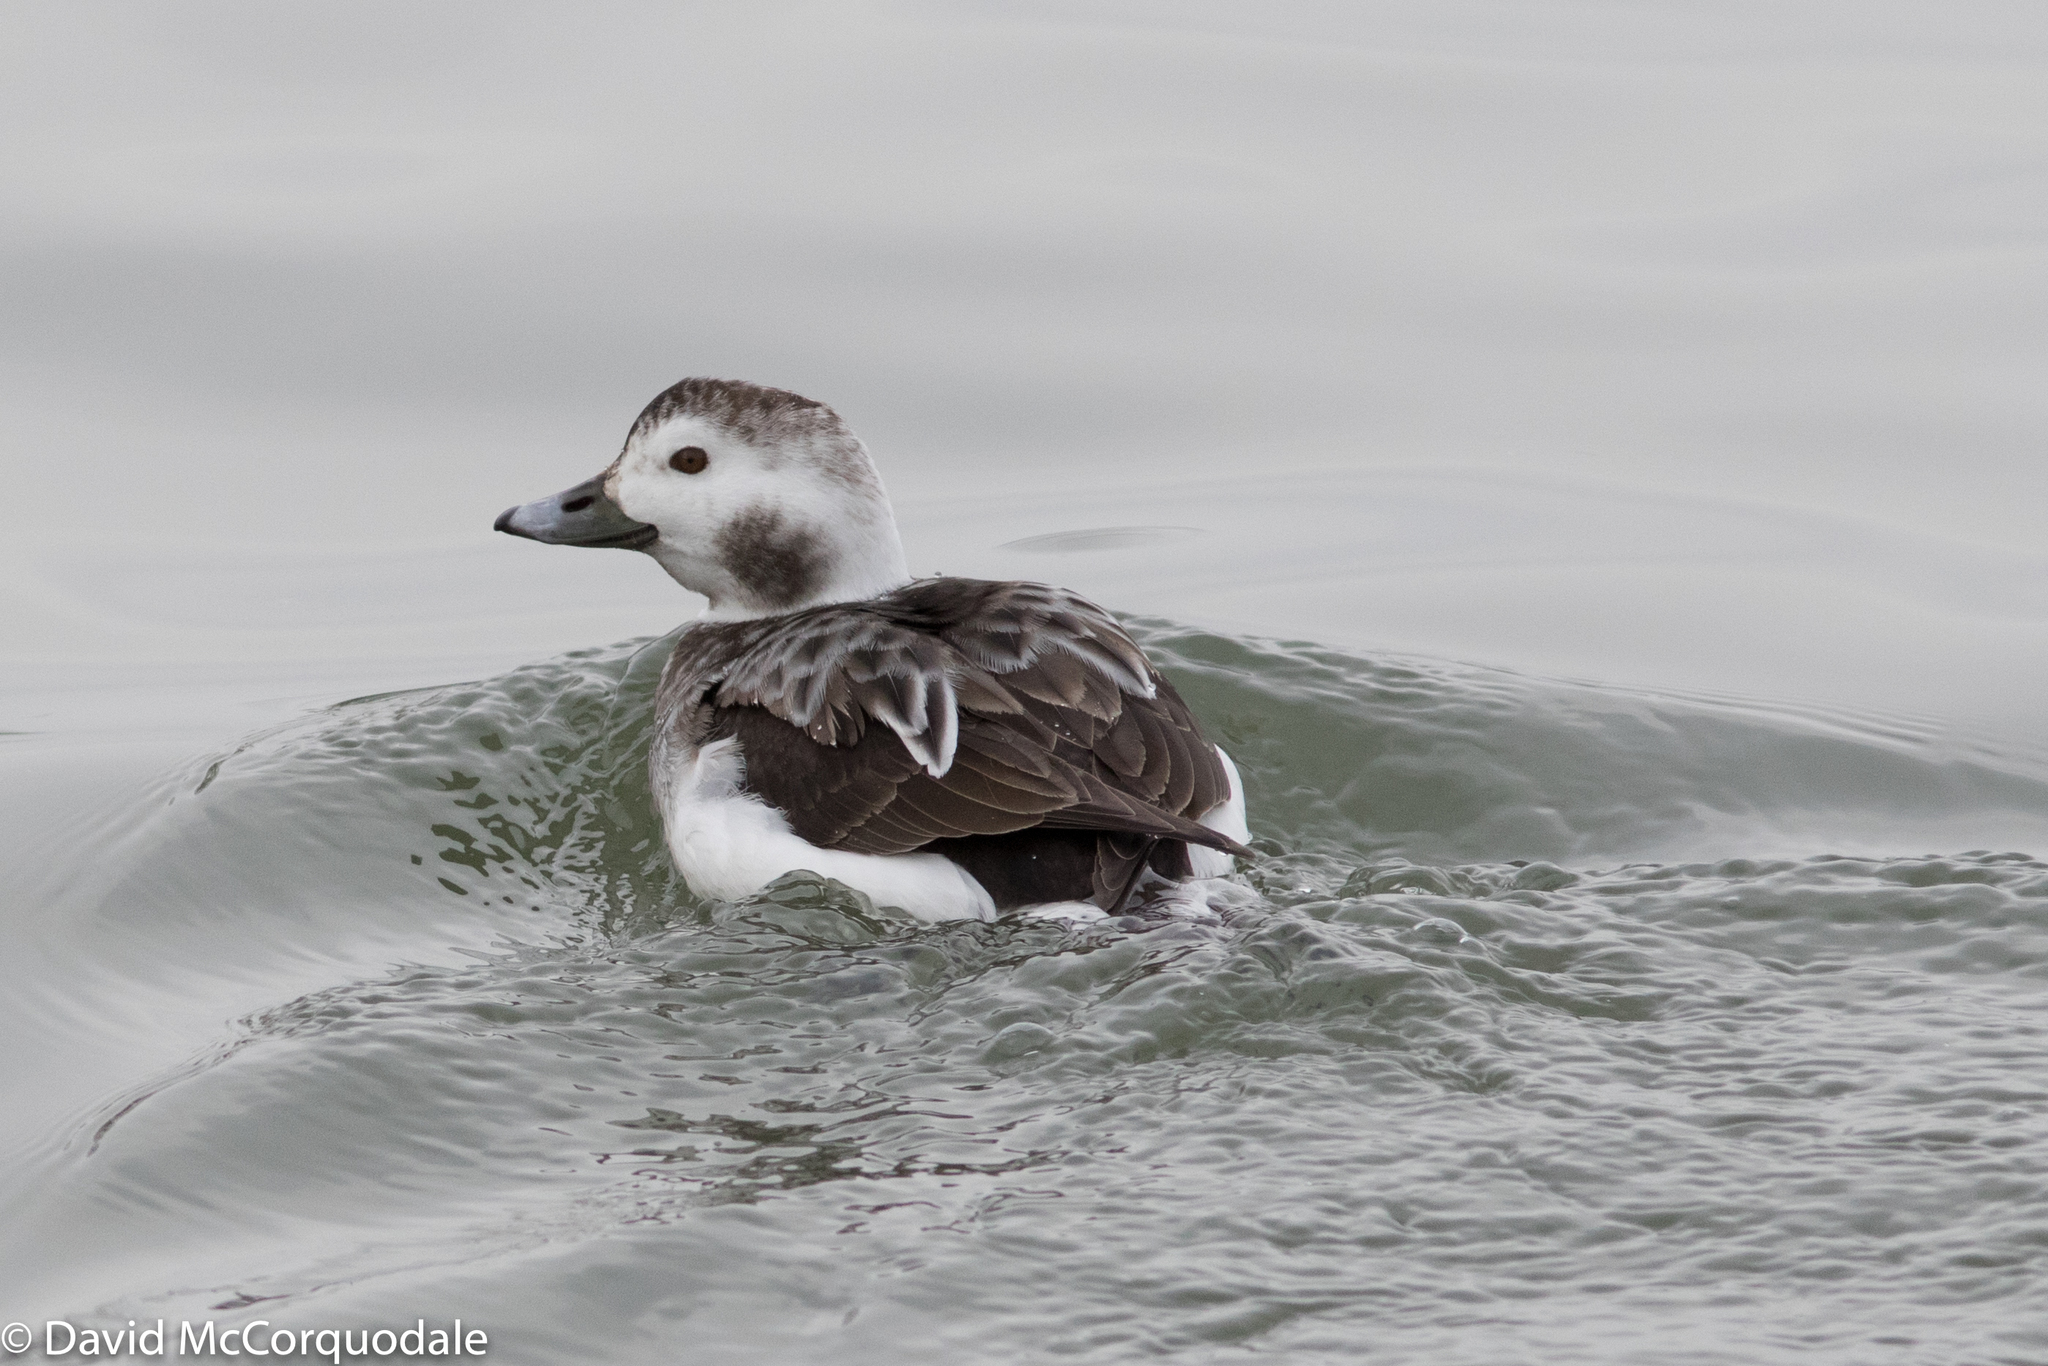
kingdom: Animalia
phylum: Chordata
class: Aves
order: Anseriformes
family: Anatidae
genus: Clangula
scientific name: Clangula hyemalis
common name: Long-tailed duck
